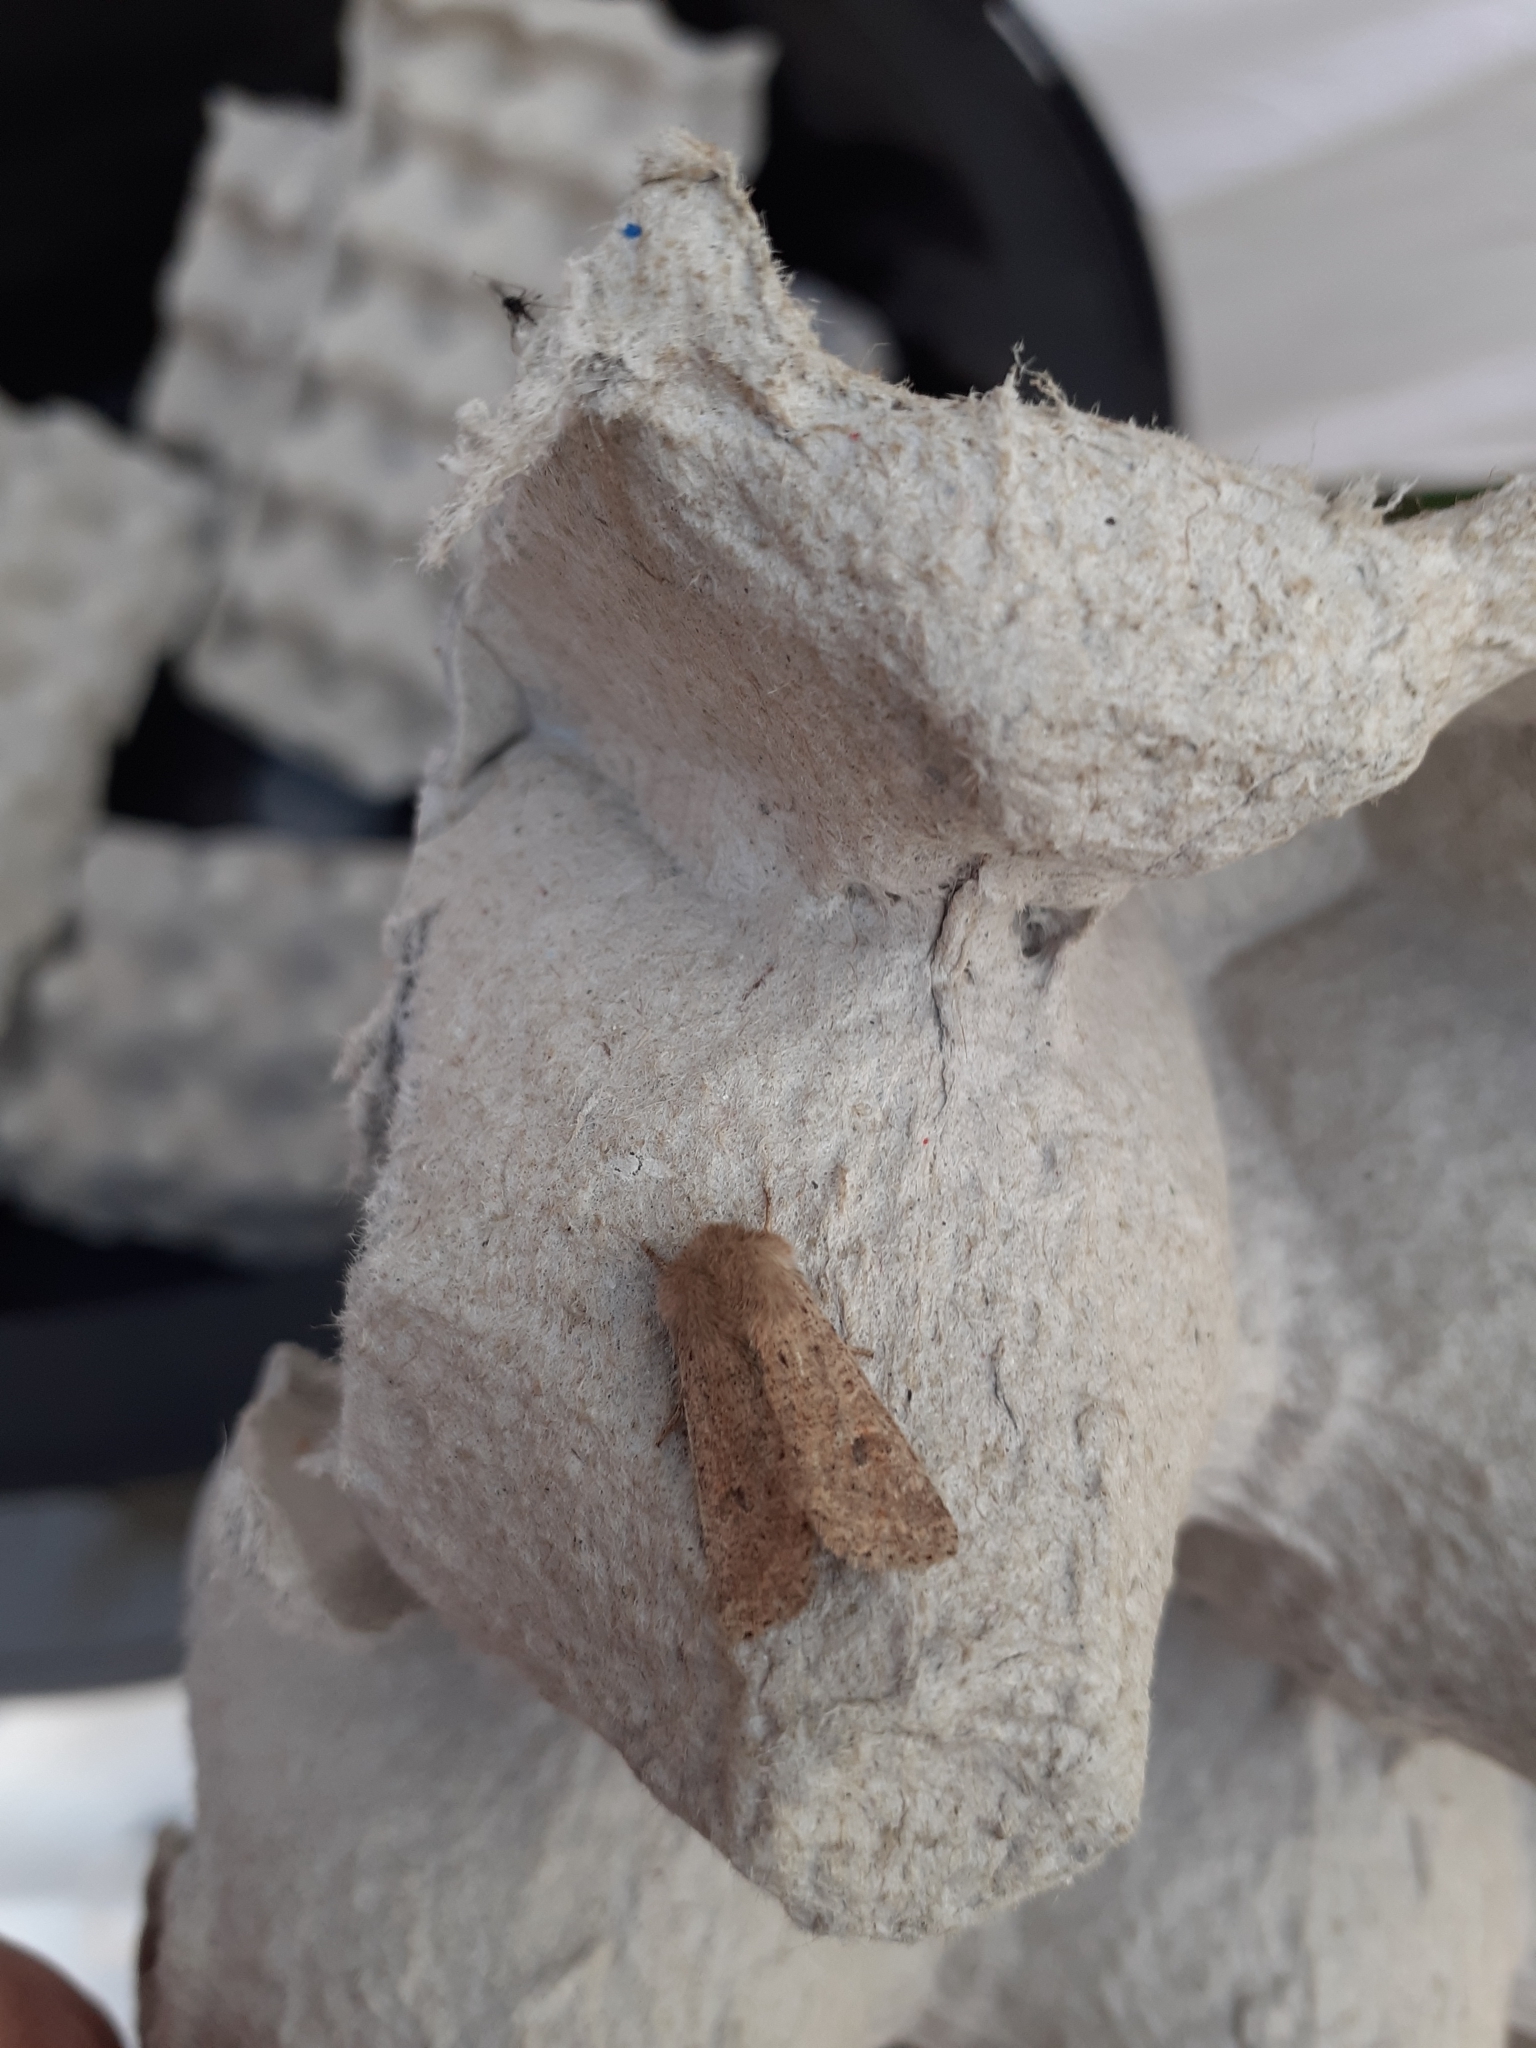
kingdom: Animalia
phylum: Arthropoda
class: Insecta
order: Lepidoptera
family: Noctuidae
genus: Orthosia
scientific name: Orthosia cruda
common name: Small quaker
